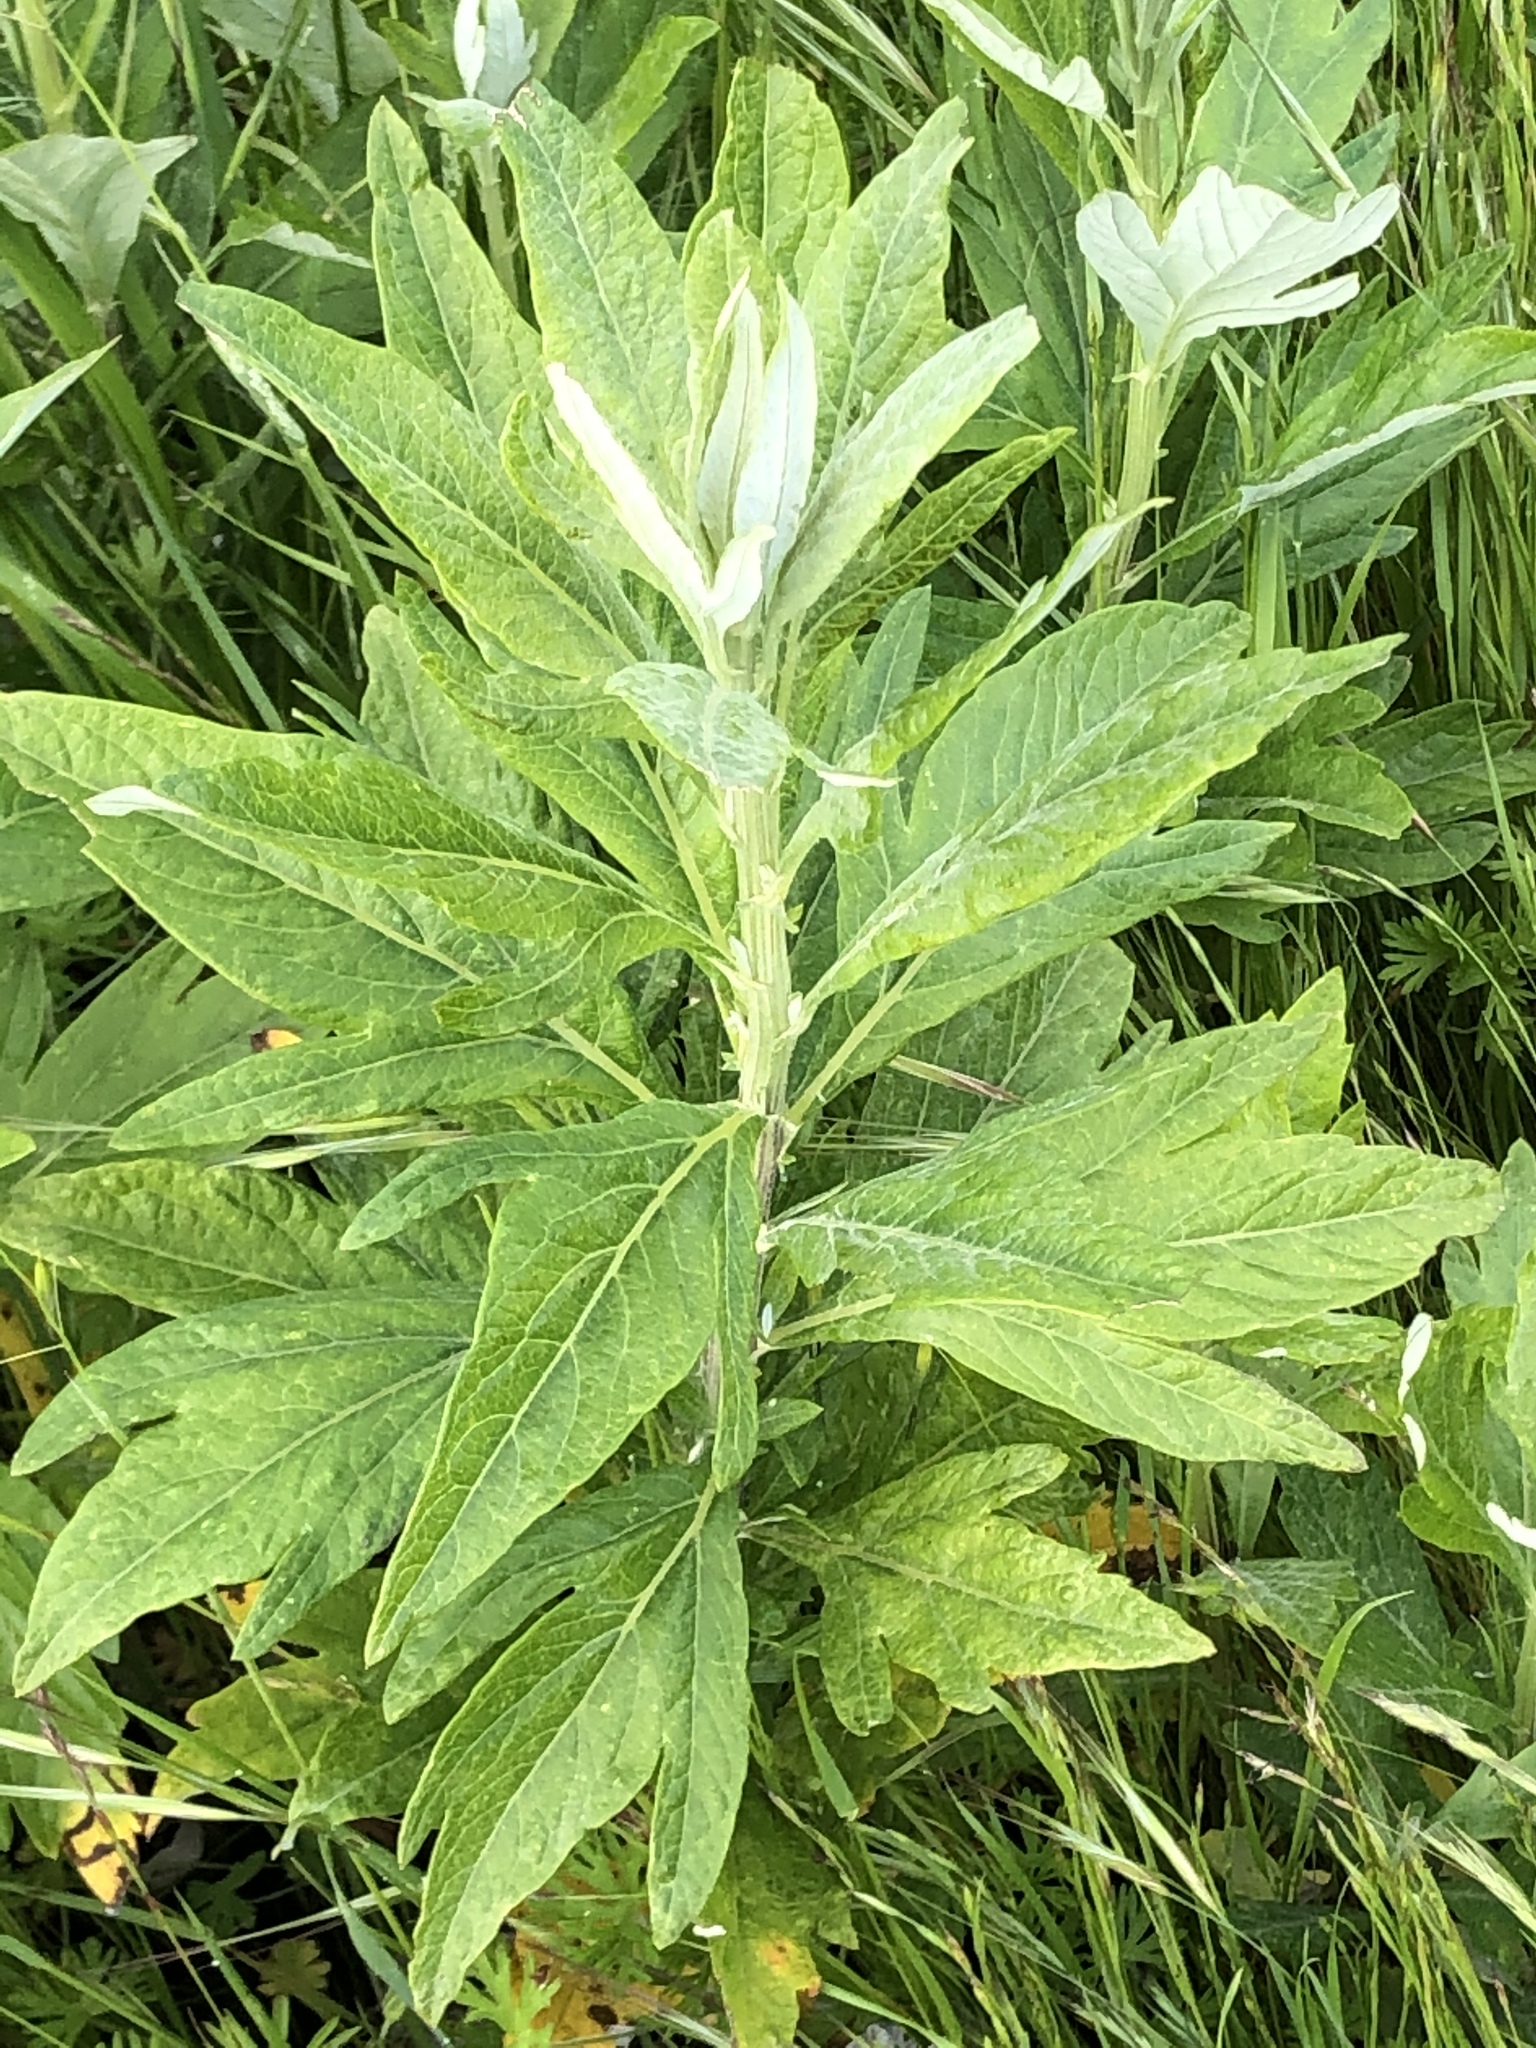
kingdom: Plantae
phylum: Tracheophyta
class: Magnoliopsida
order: Asterales
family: Asteraceae
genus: Artemisia
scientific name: Artemisia douglasiana
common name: Northwest mugwort
